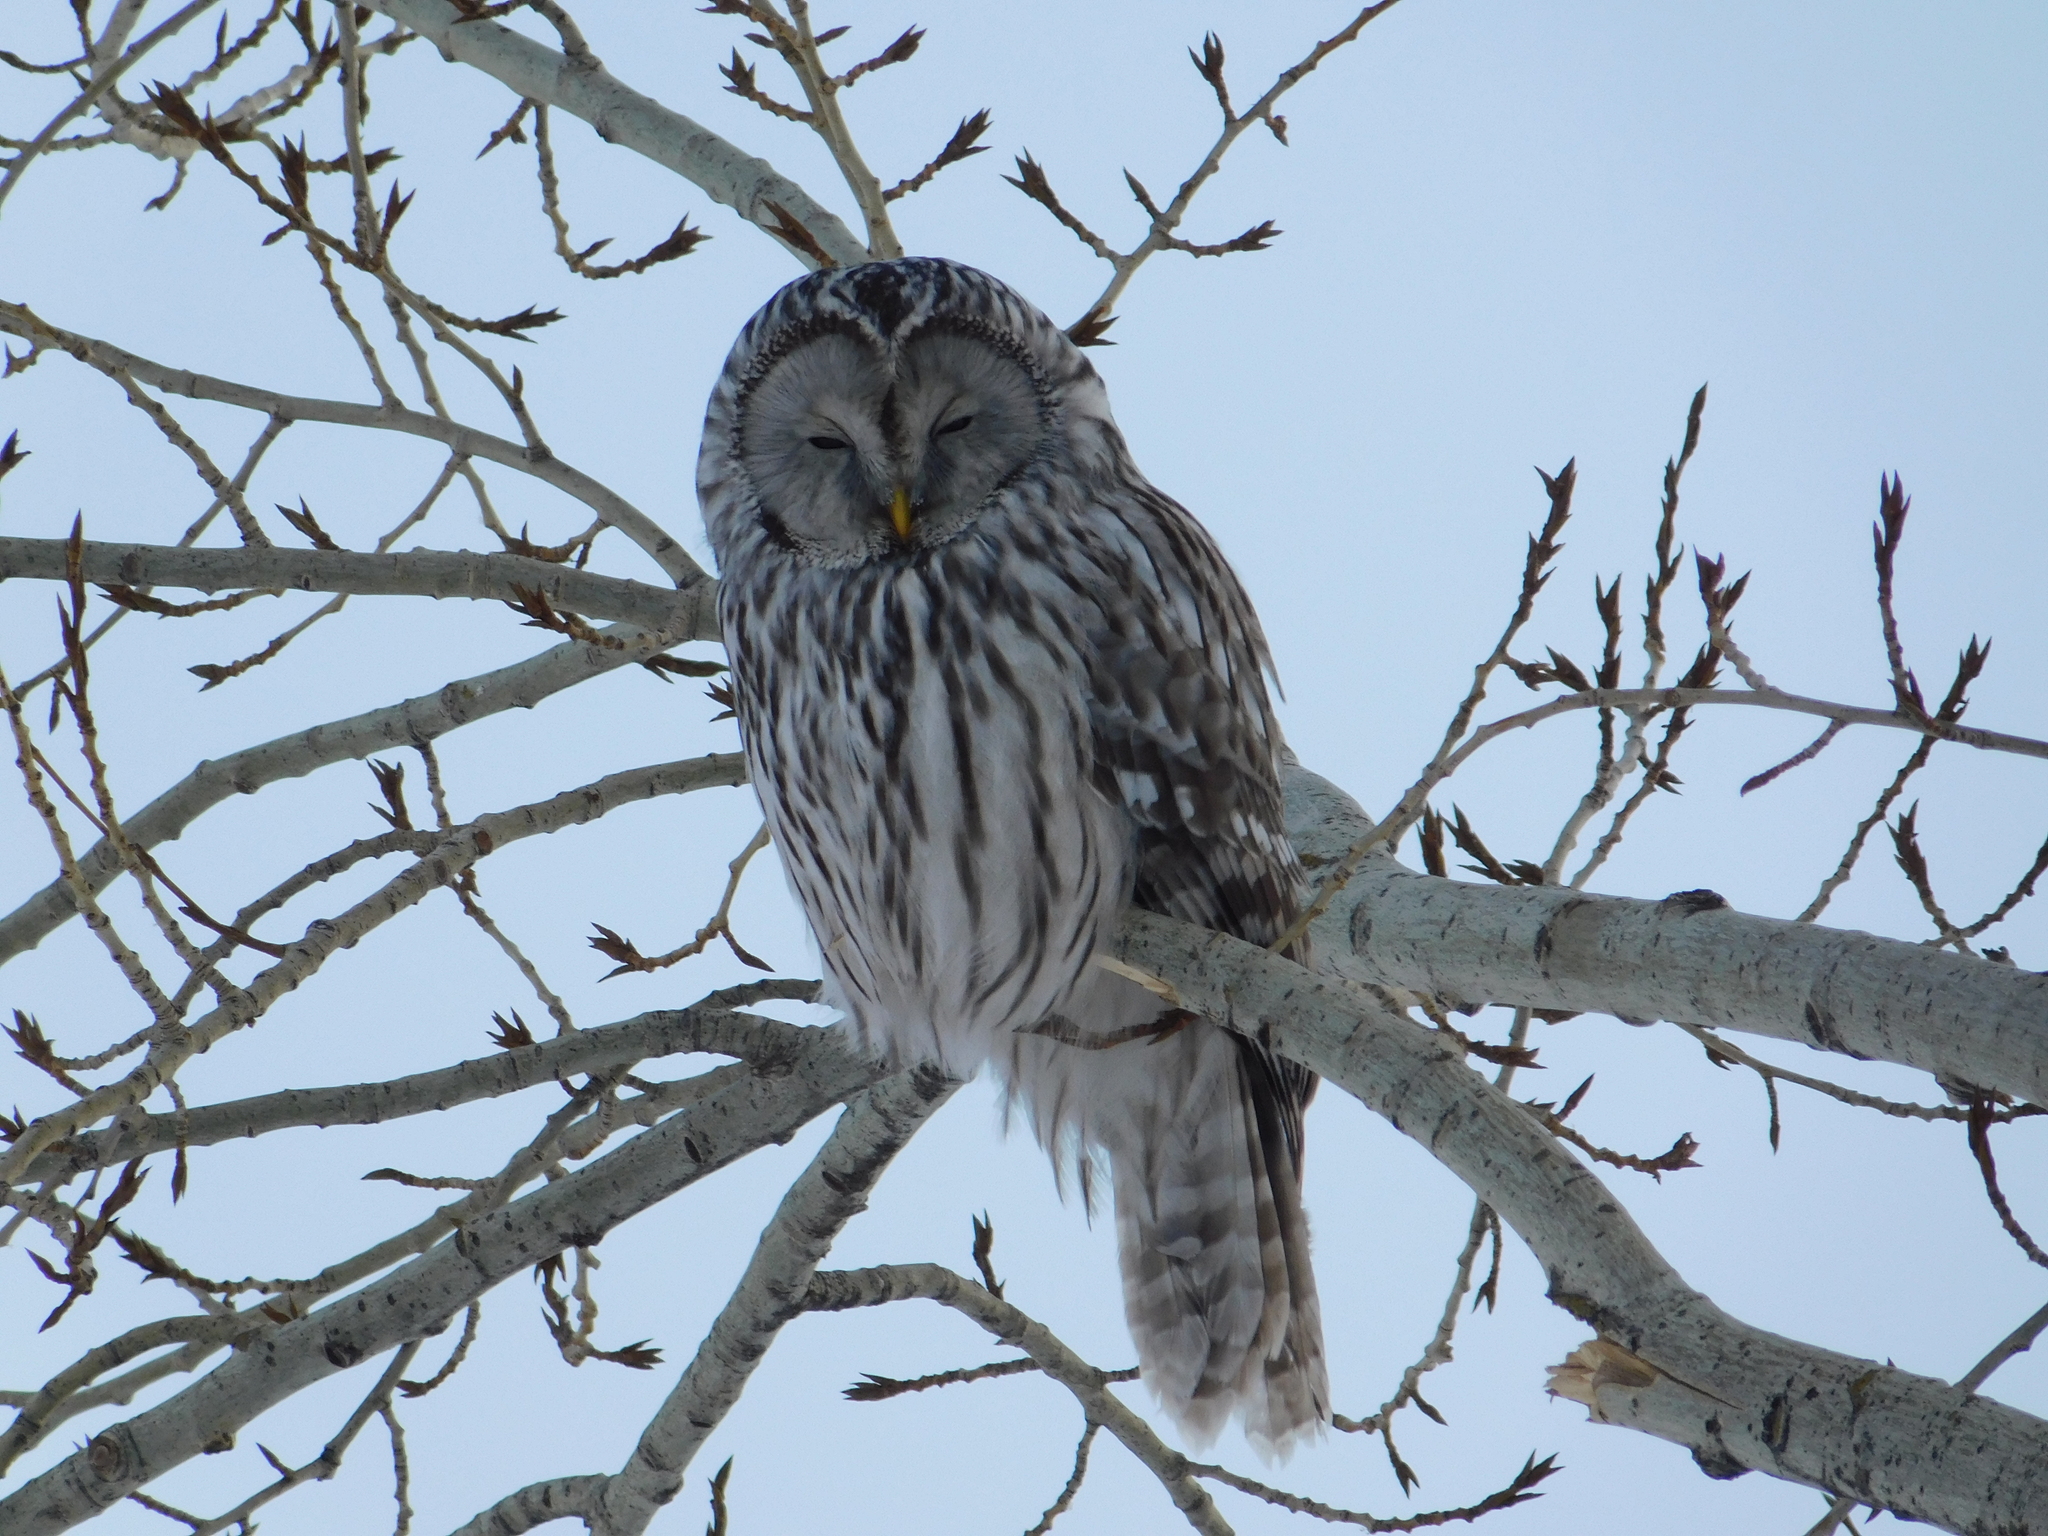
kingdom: Animalia
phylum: Chordata
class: Aves
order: Strigiformes
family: Strigidae
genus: Strix
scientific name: Strix uralensis
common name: Ural owl
